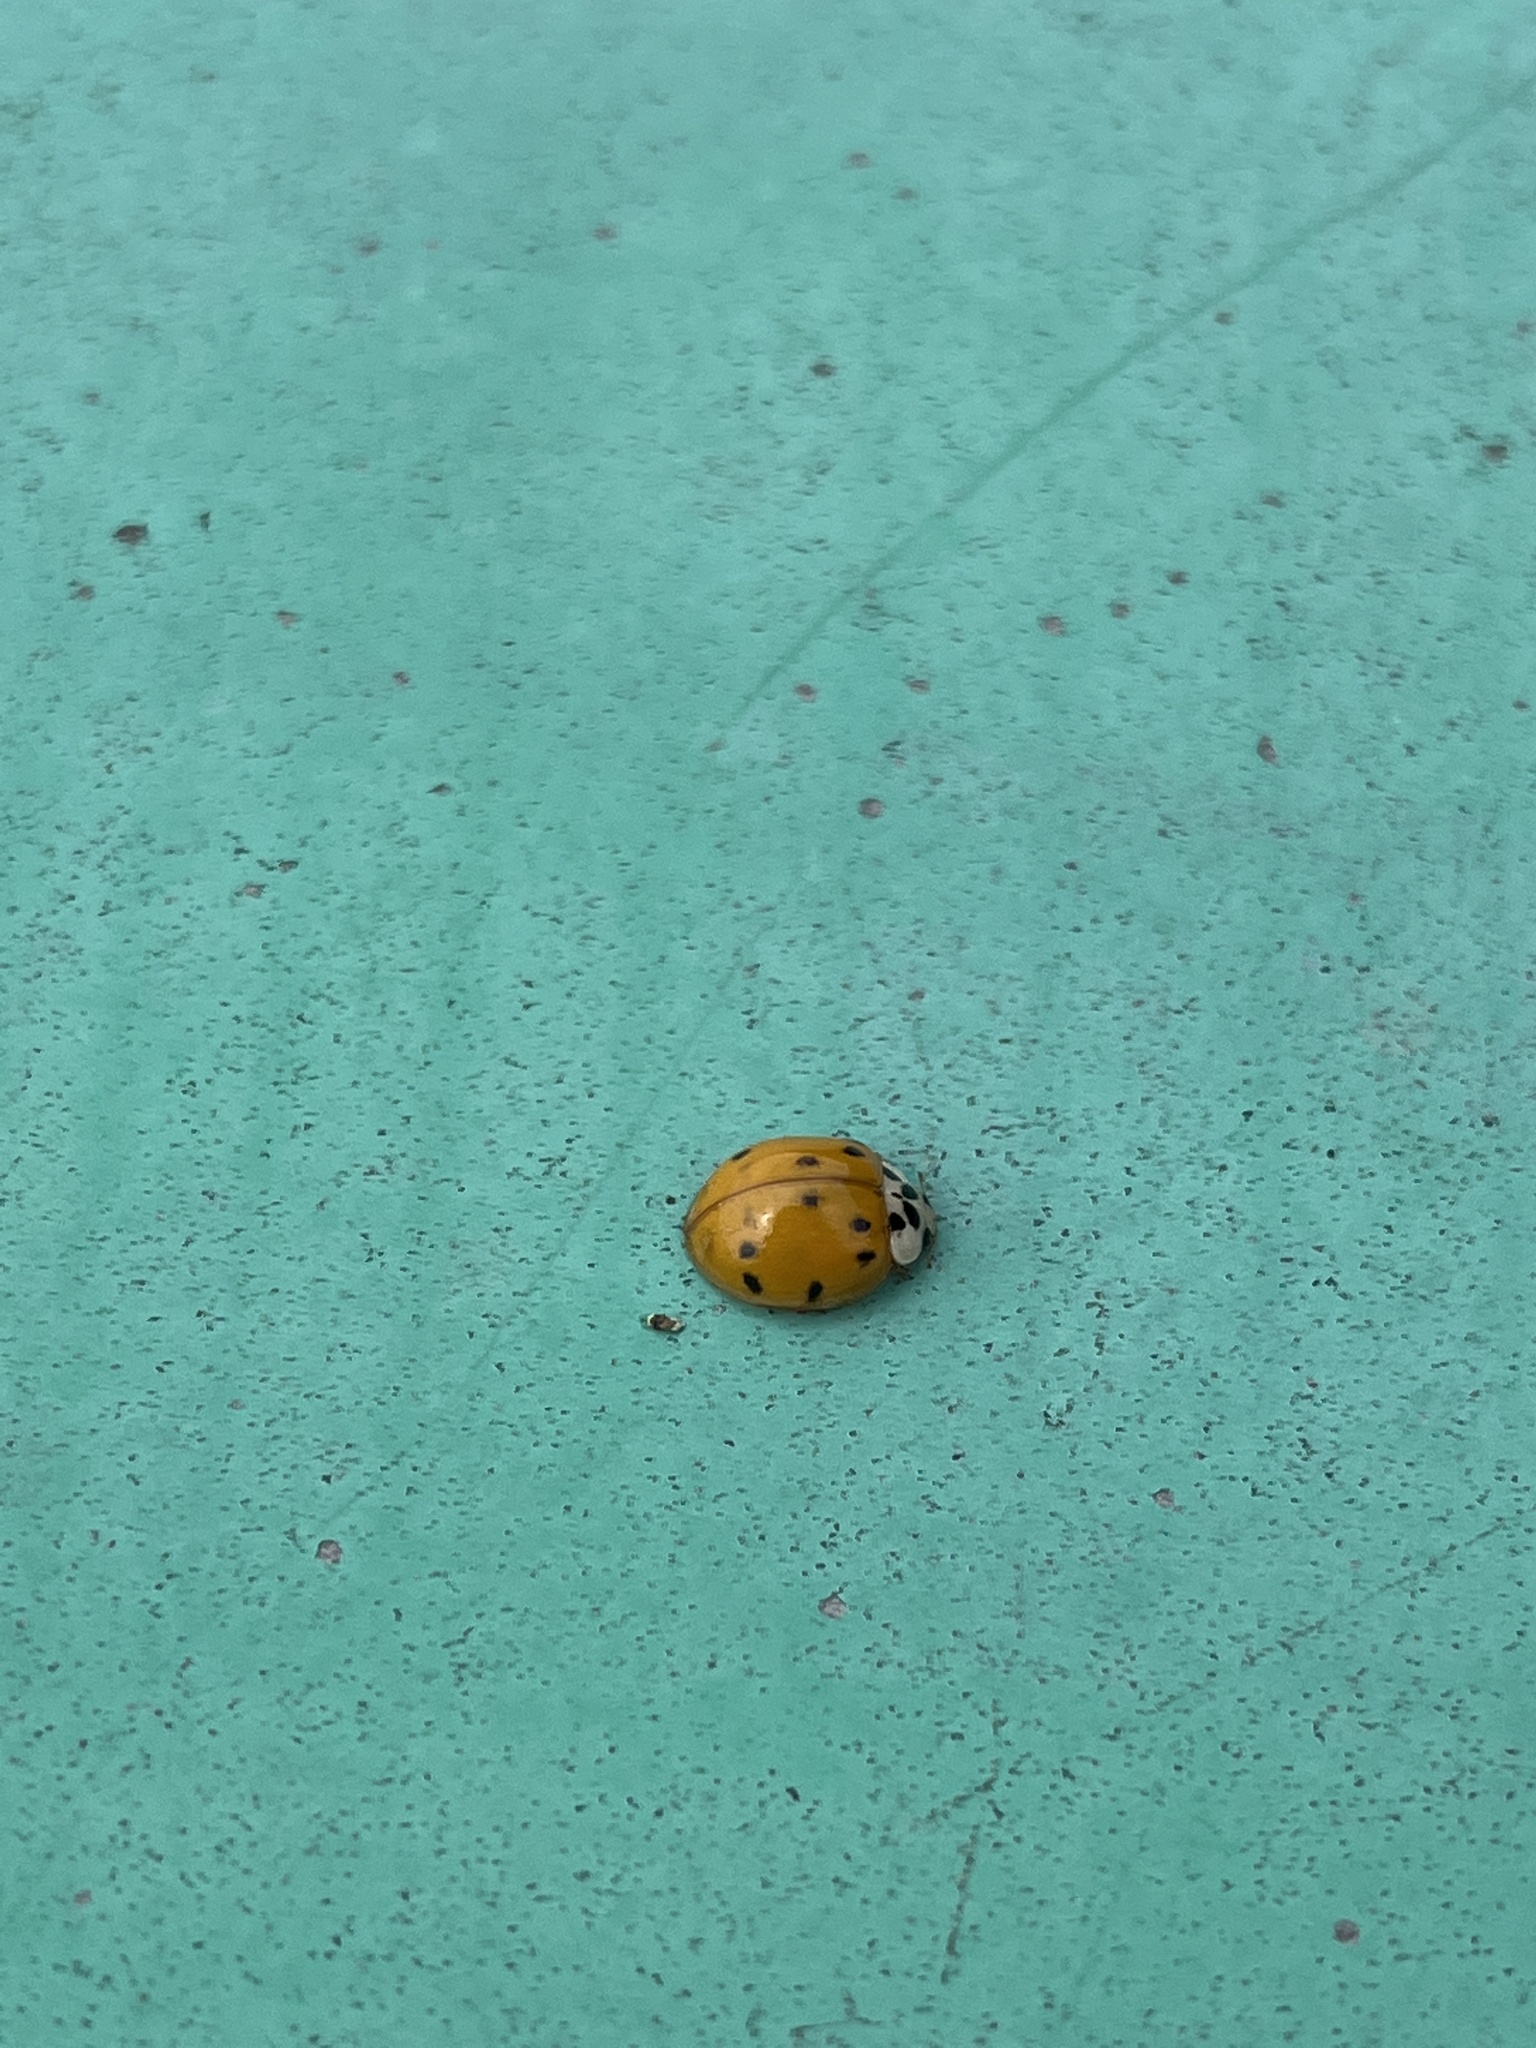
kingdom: Animalia
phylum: Arthropoda
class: Insecta
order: Coleoptera
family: Coccinellidae
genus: Harmonia
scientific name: Harmonia axyridis
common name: Harlequin ladybird
